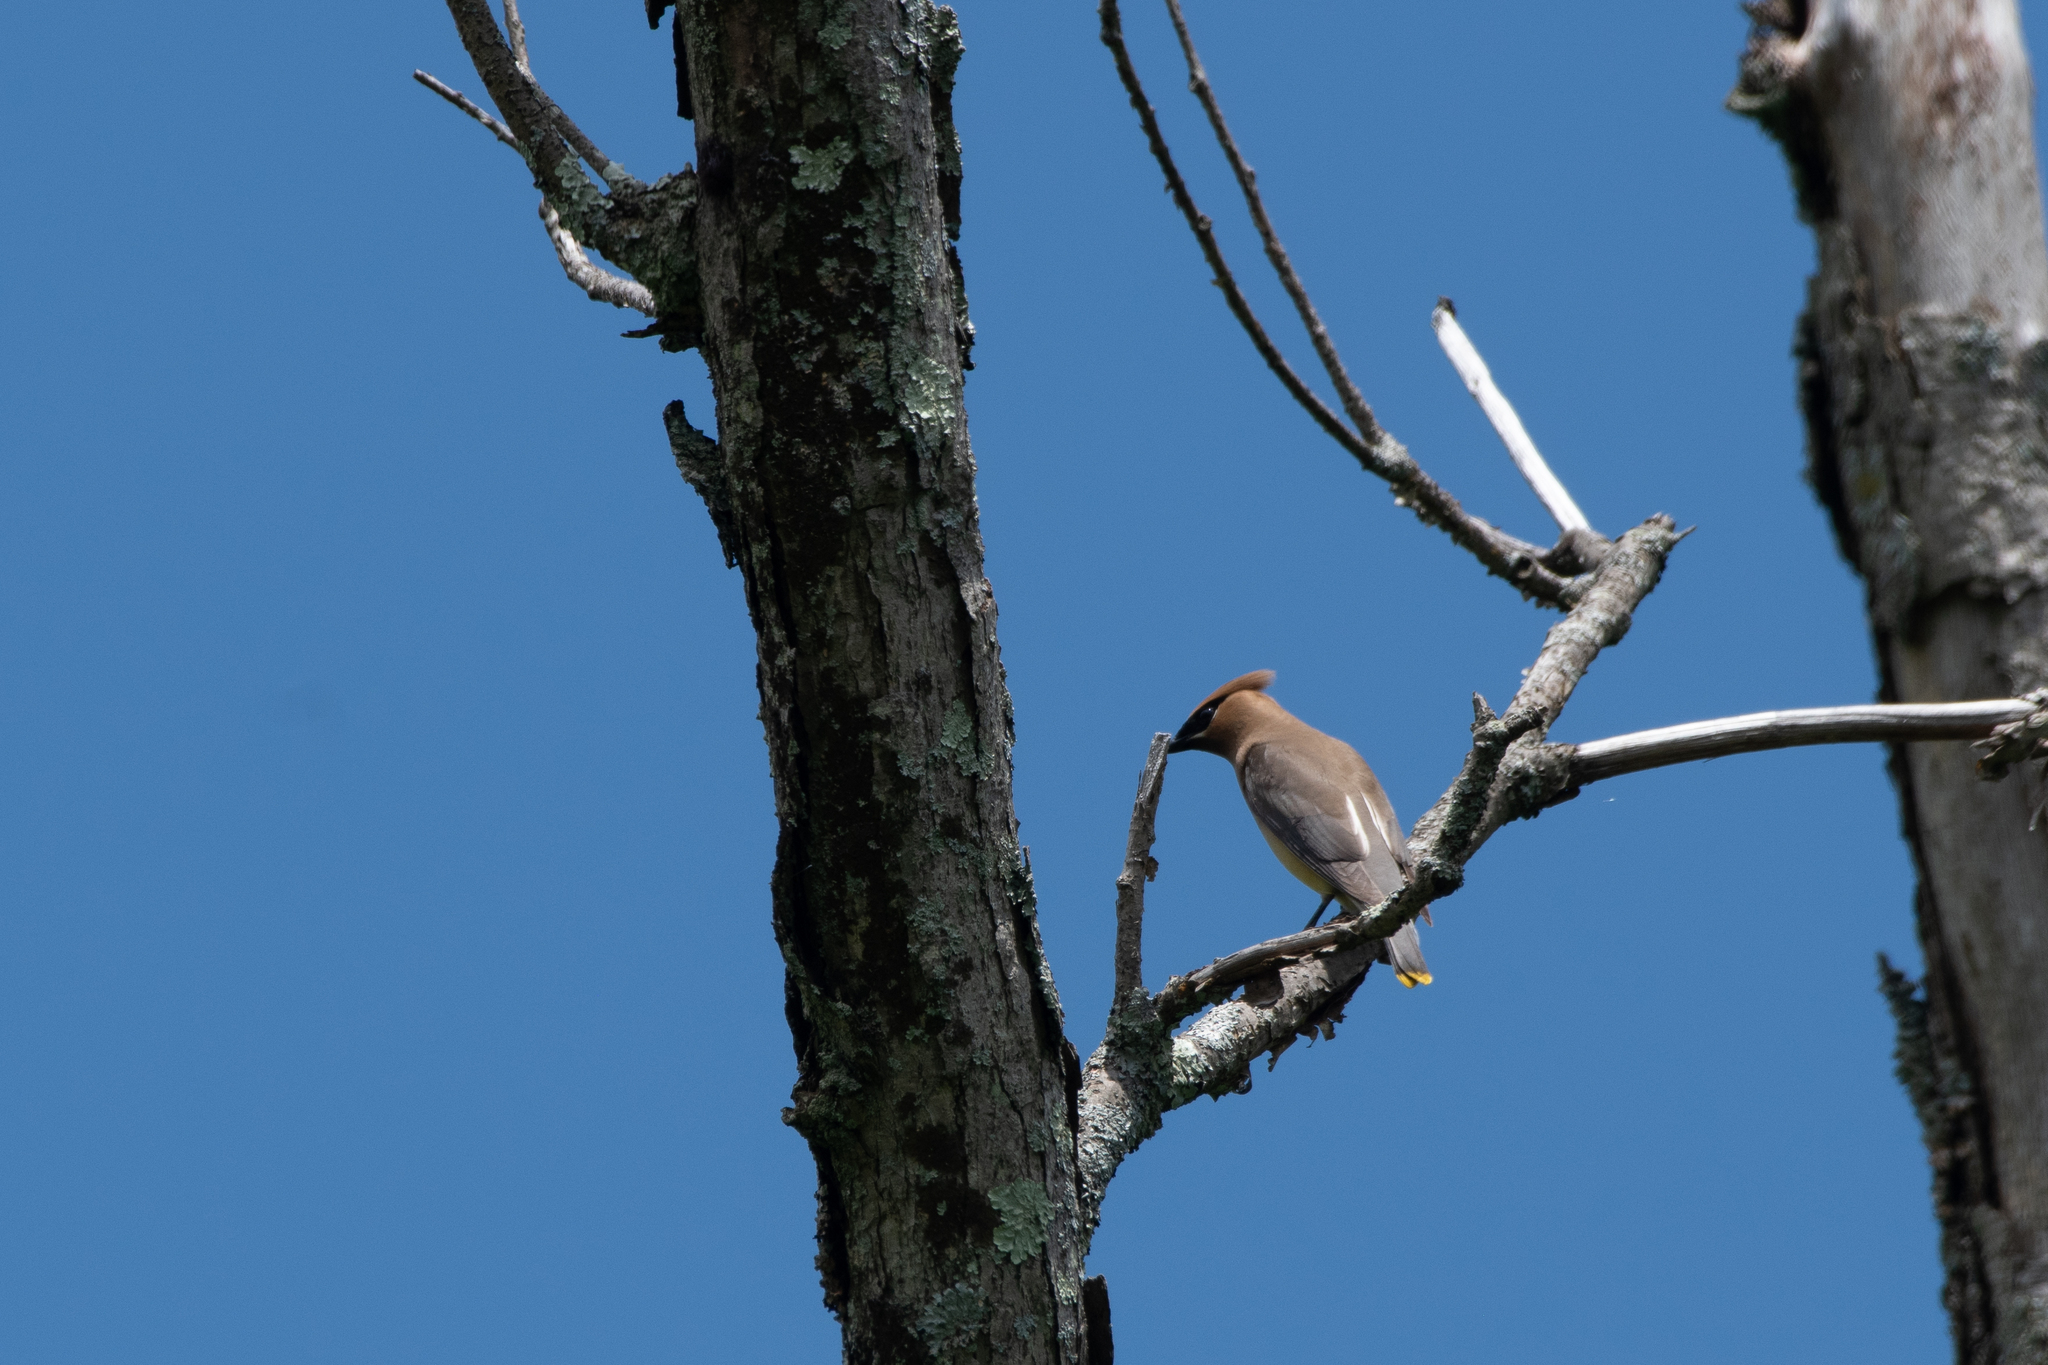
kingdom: Animalia
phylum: Chordata
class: Aves
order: Passeriformes
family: Bombycillidae
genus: Bombycilla
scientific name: Bombycilla cedrorum
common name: Cedar waxwing
